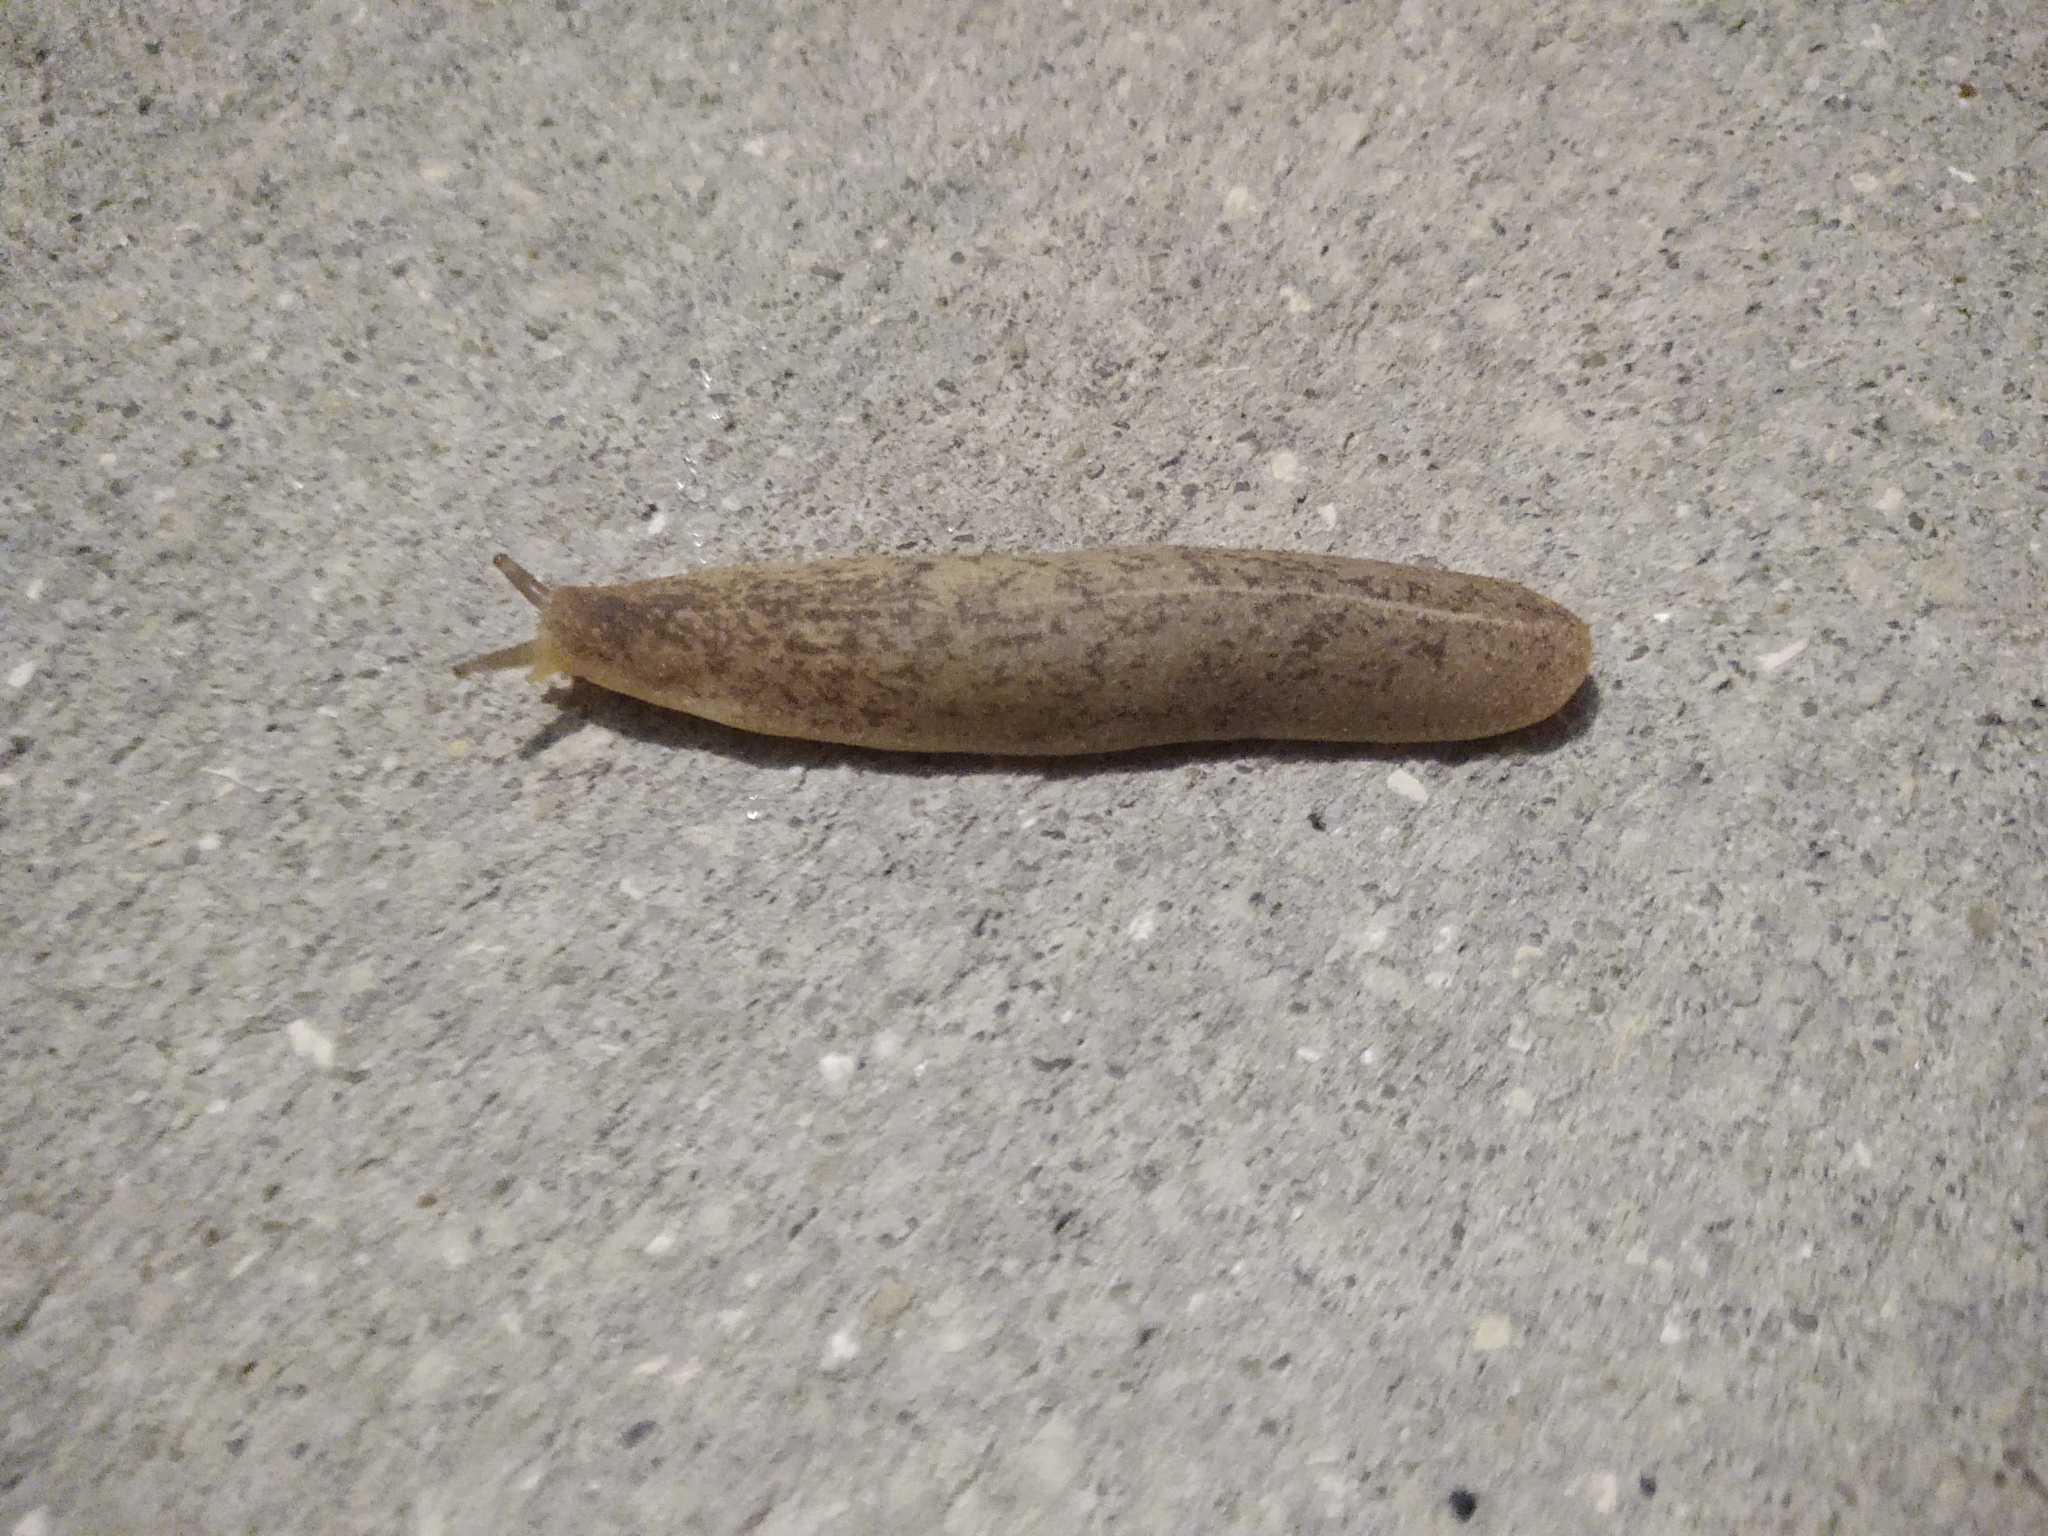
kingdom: Animalia
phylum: Mollusca
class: Gastropoda
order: Systellommatophora
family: Veronicellidae
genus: Leidyula
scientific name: Leidyula floridana
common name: Florida leatherleaf
